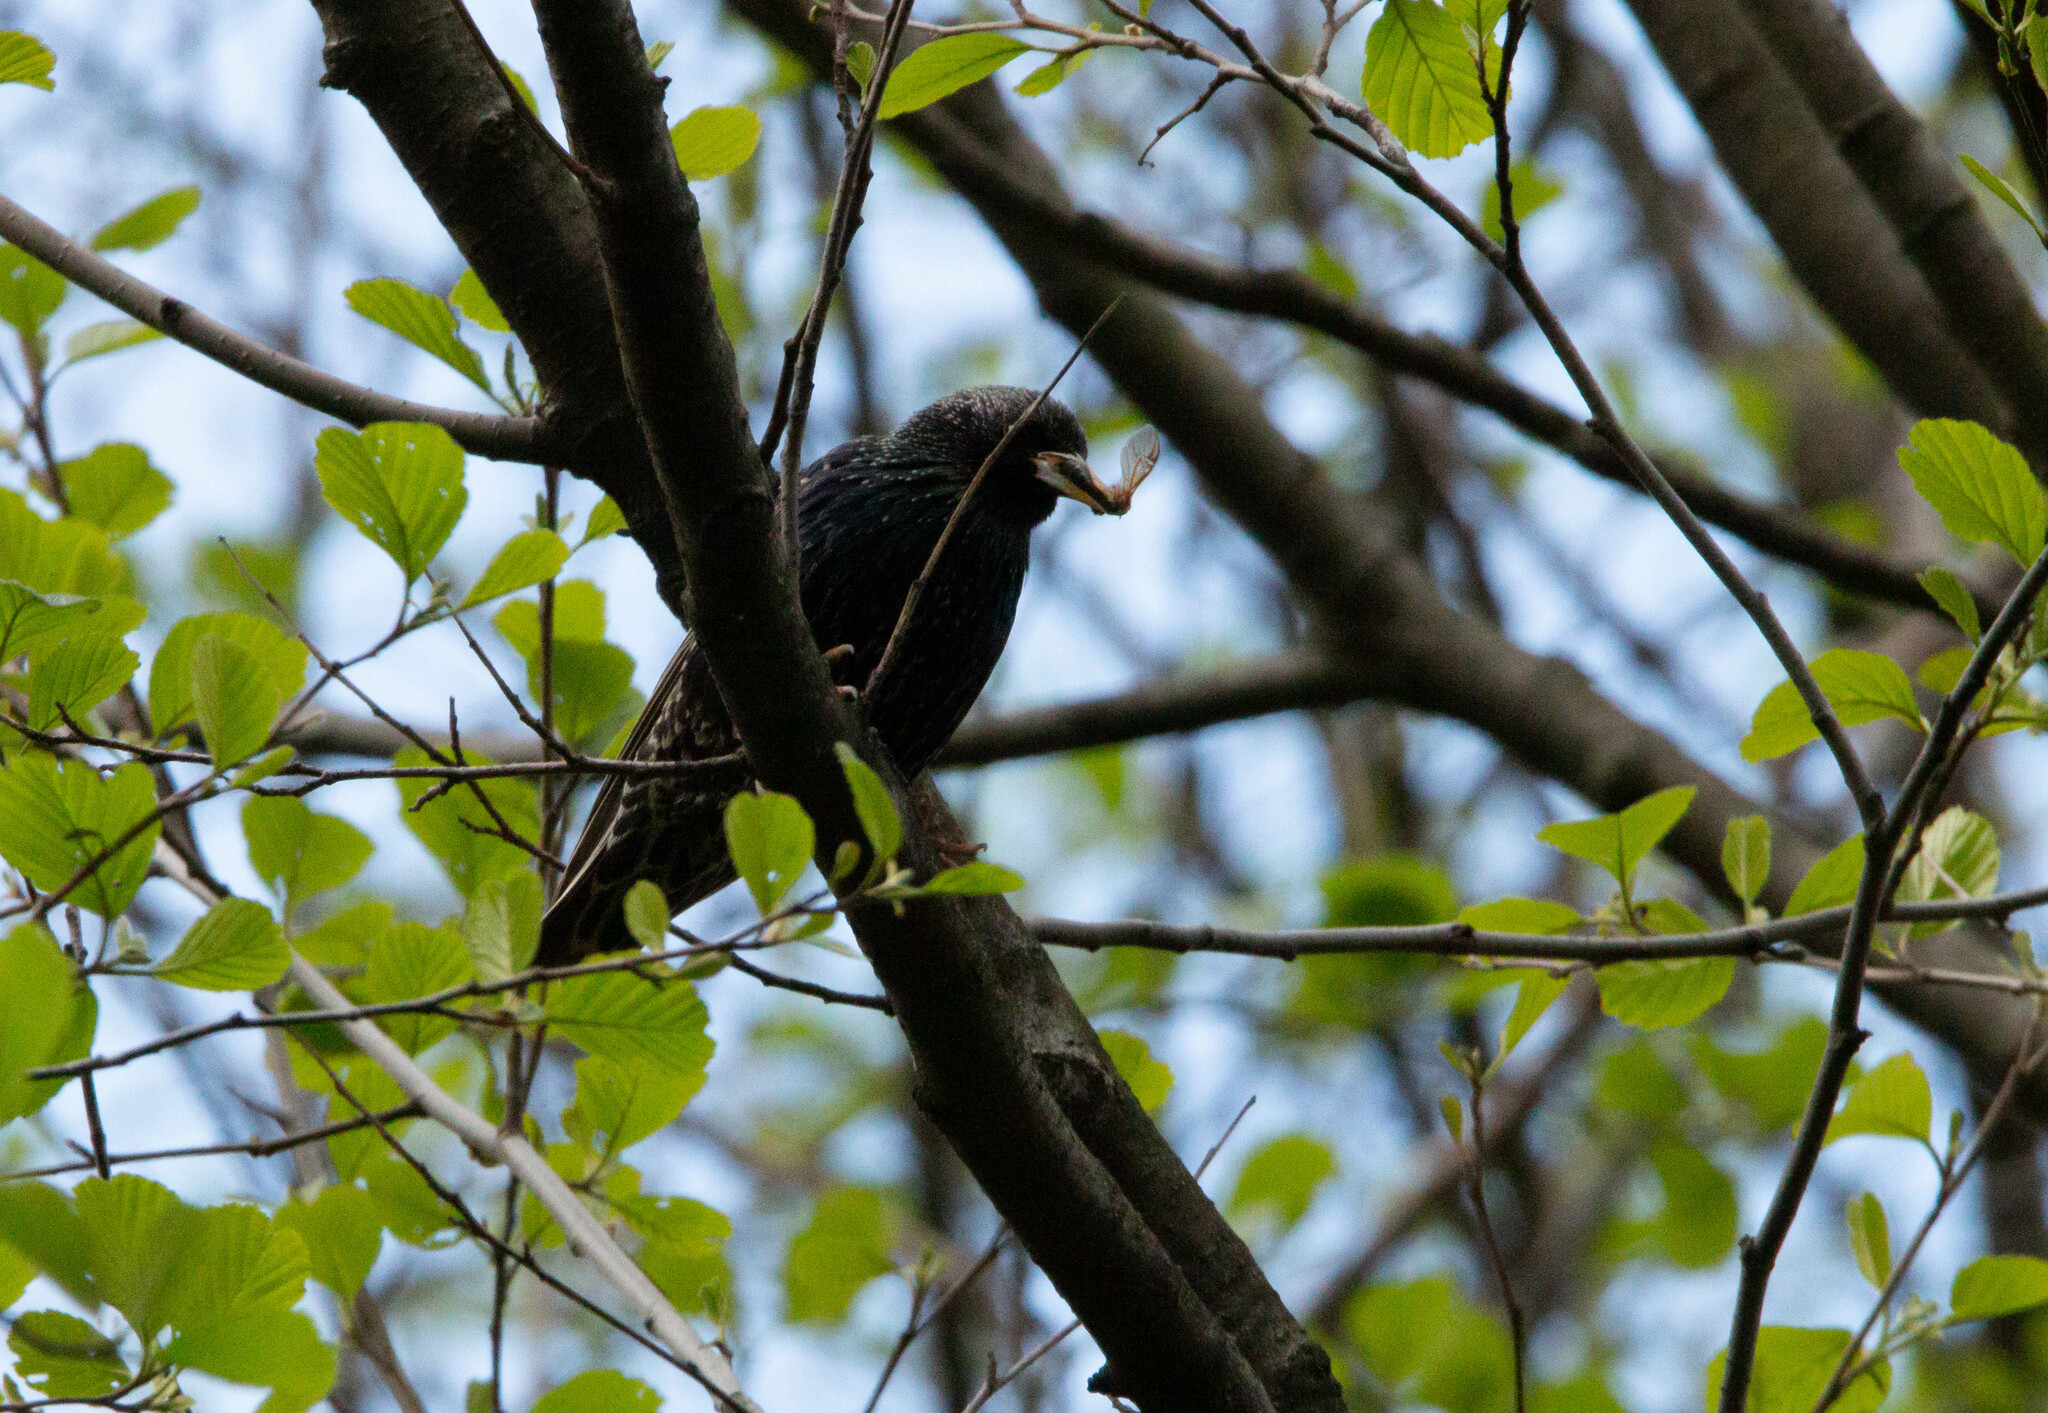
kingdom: Animalia
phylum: Chordata
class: Aves
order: Passeriformes
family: Sturnidae
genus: Sturnus
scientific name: Sturnus vulgaris
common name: Common starling
